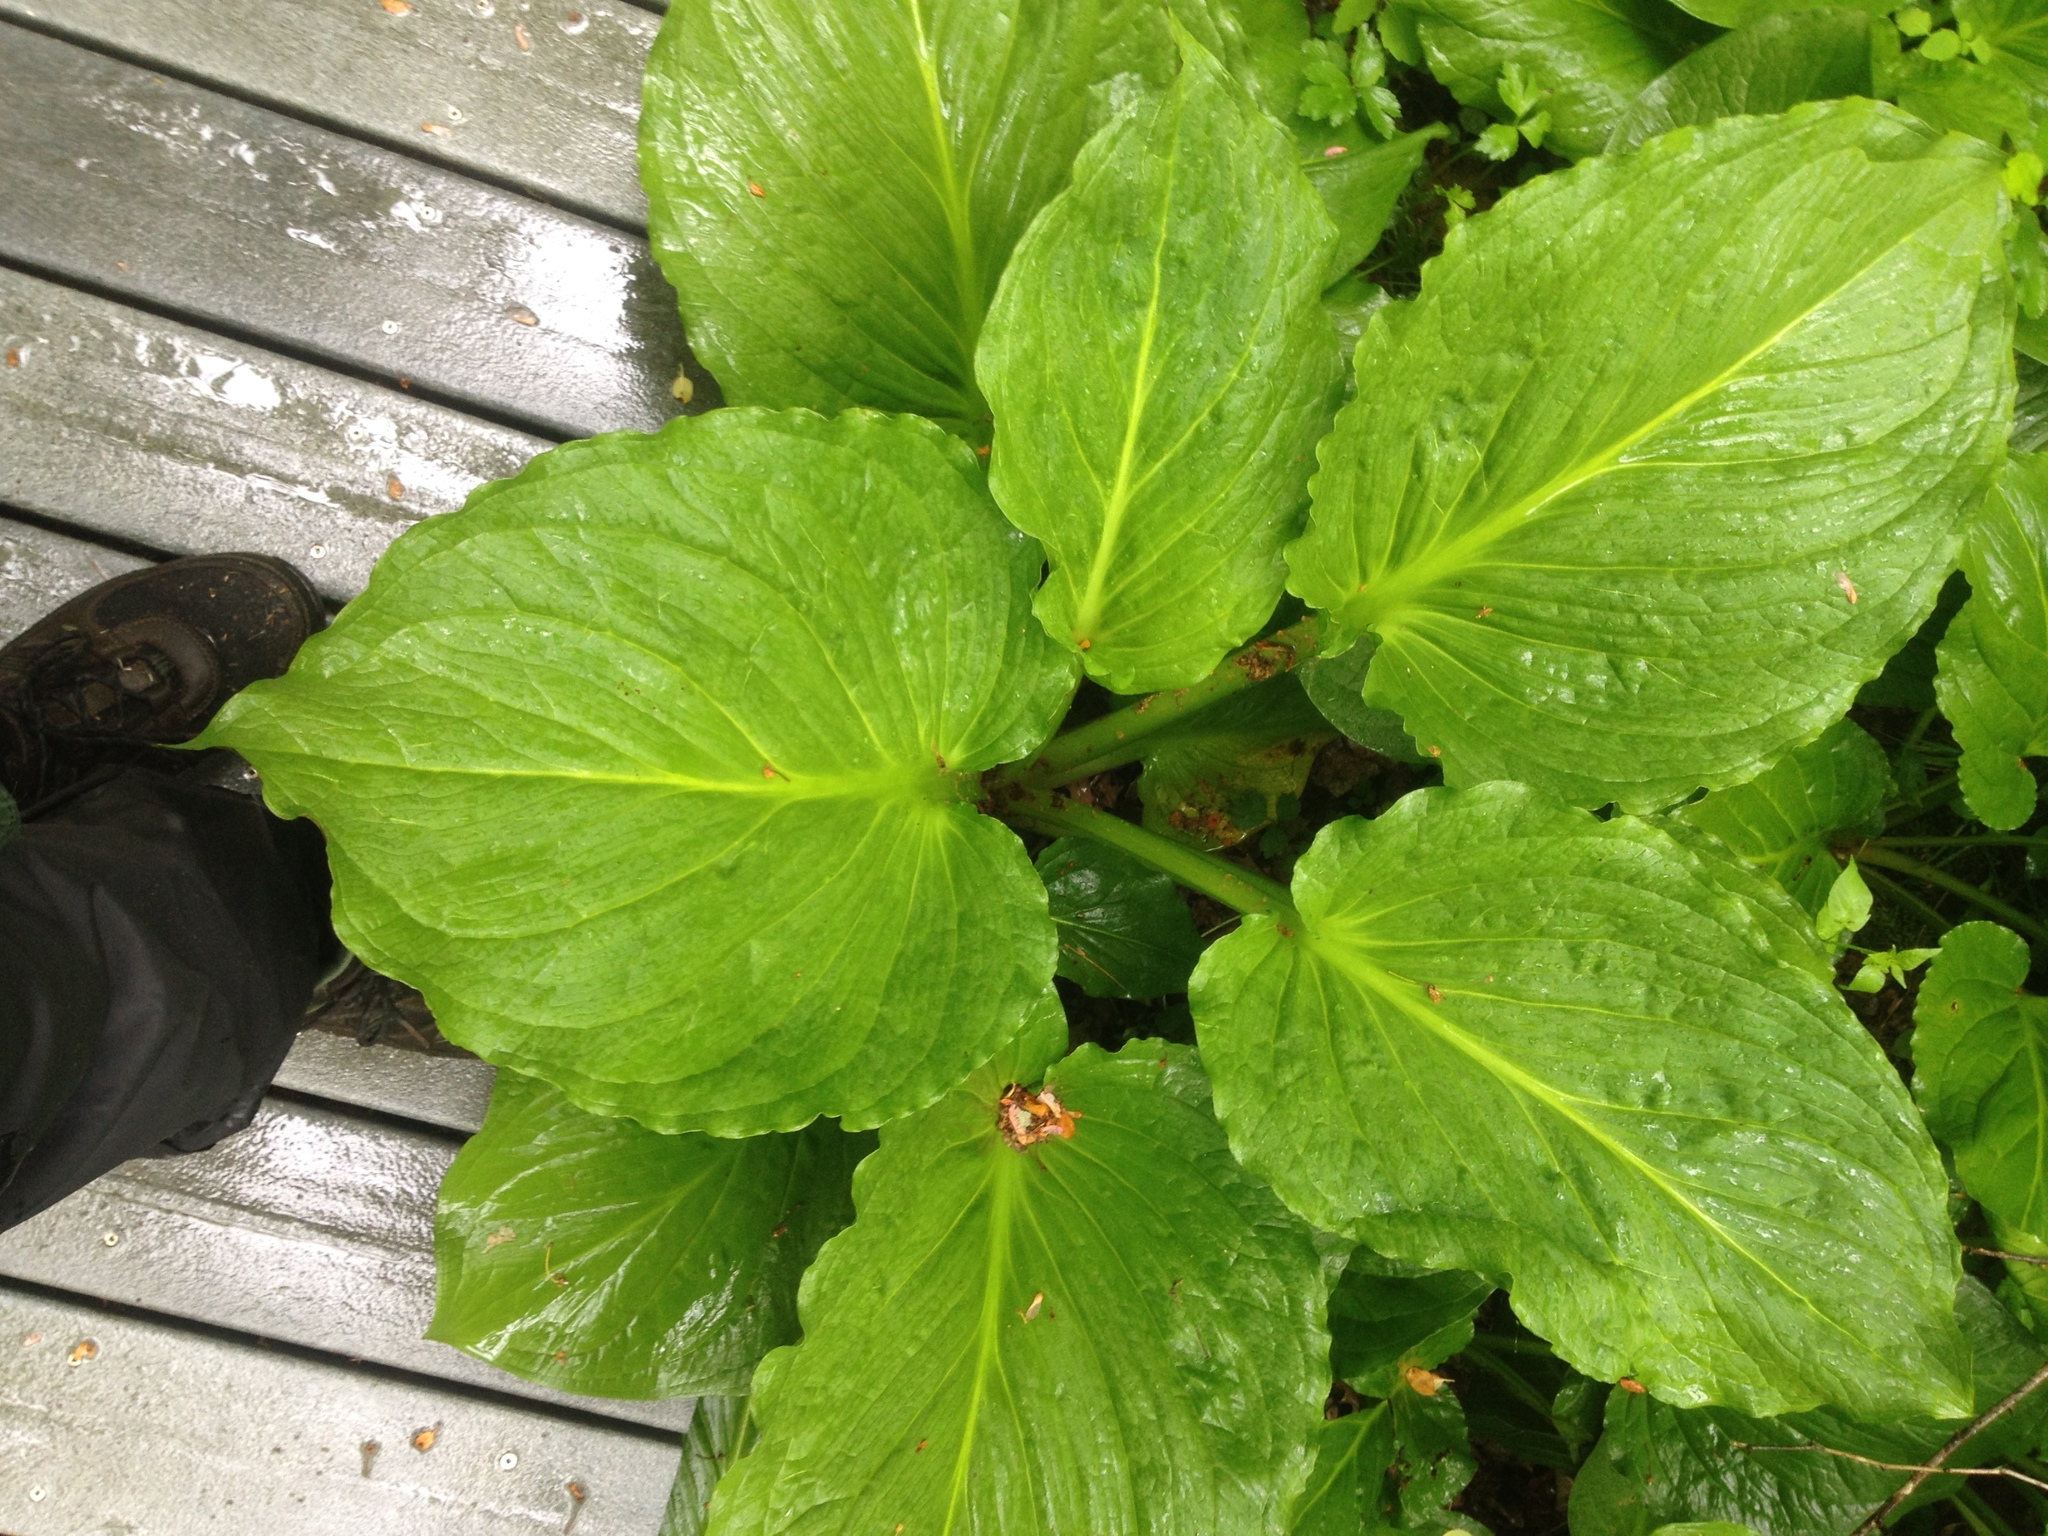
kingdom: Plantae
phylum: Tracheophyta
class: Liliopsida
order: Alismatales
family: Araceae
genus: Symplocarpus
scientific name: Symplocarpus foetidus
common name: Eastern skunk cabbage
